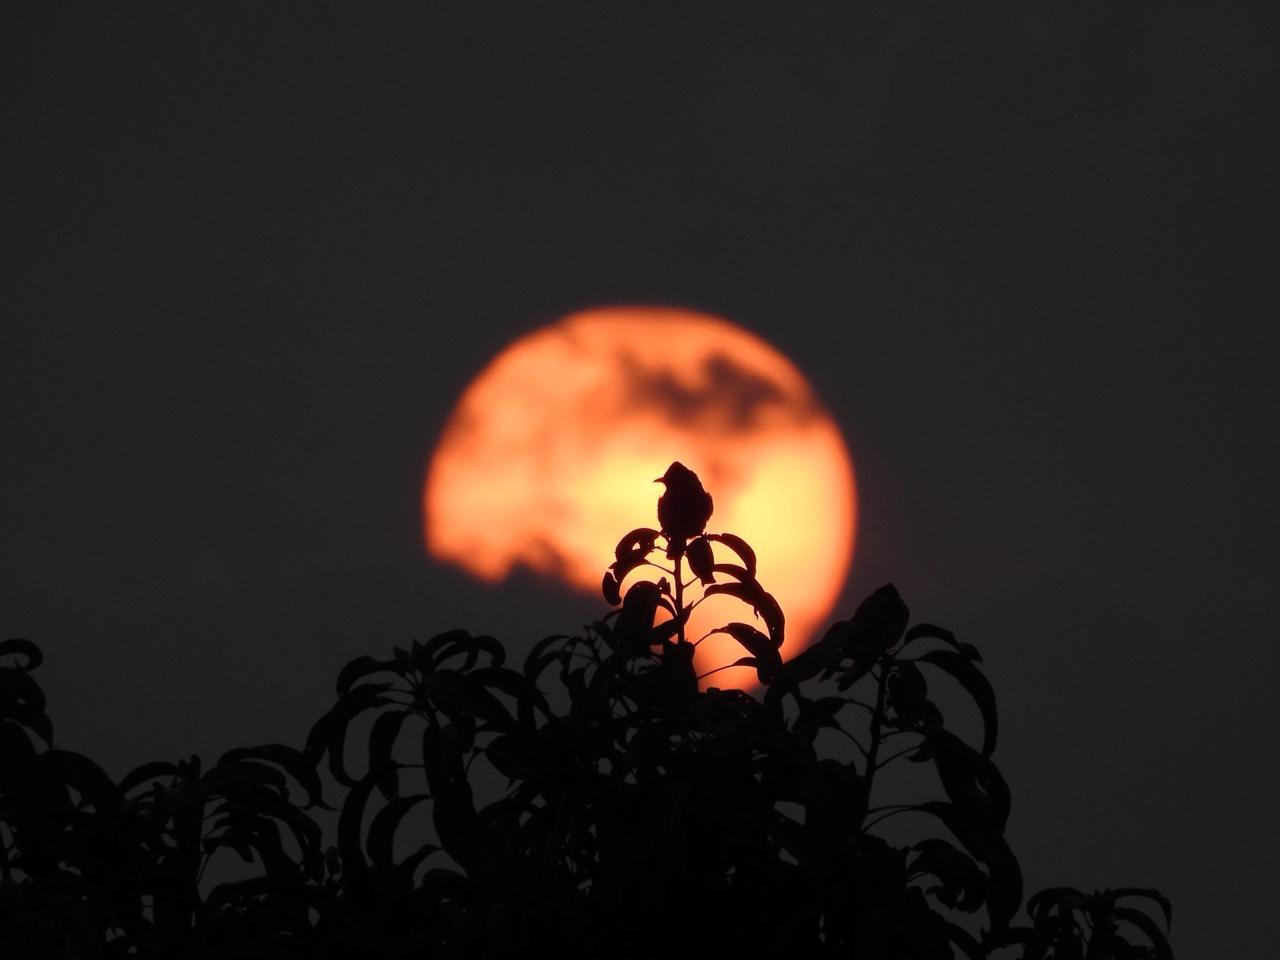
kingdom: Animalia
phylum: Chordata
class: Aves
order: Passeriformes
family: Pycnonotidae
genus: Pycnonotus
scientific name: Pycnonotus cafer
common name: Red-vented bulbul
